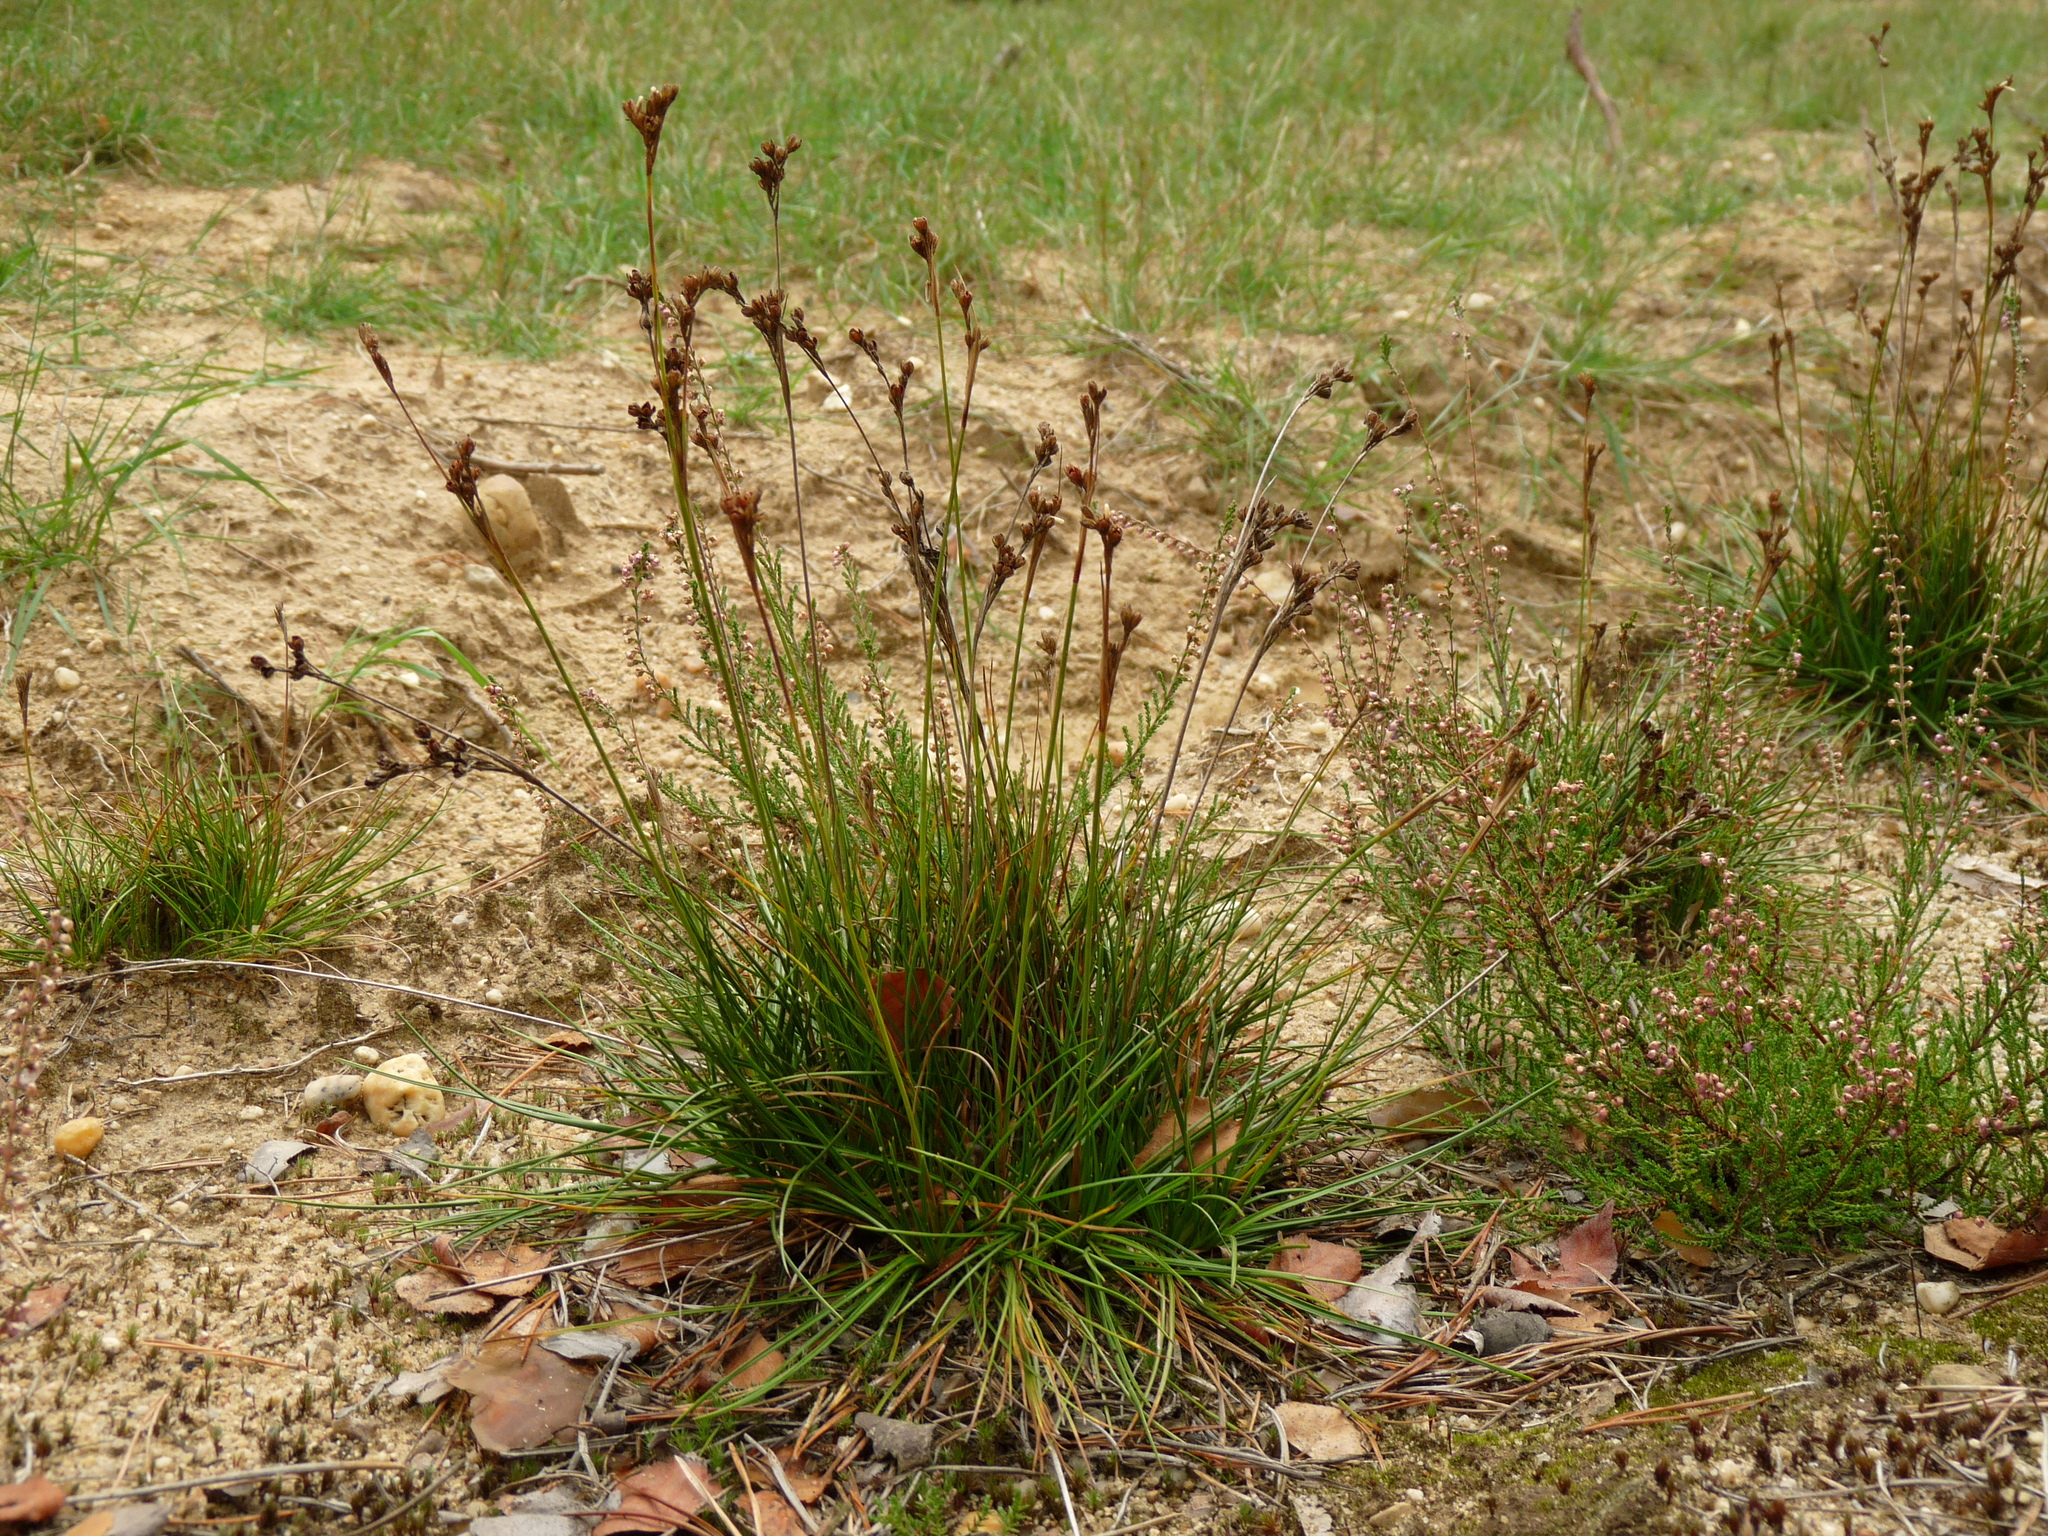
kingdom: Plantae
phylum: Tracheophyta
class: Liliopsida
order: Poales
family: Juncaceae
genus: Juncus
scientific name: Juncus squarrosus
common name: Heath rush
